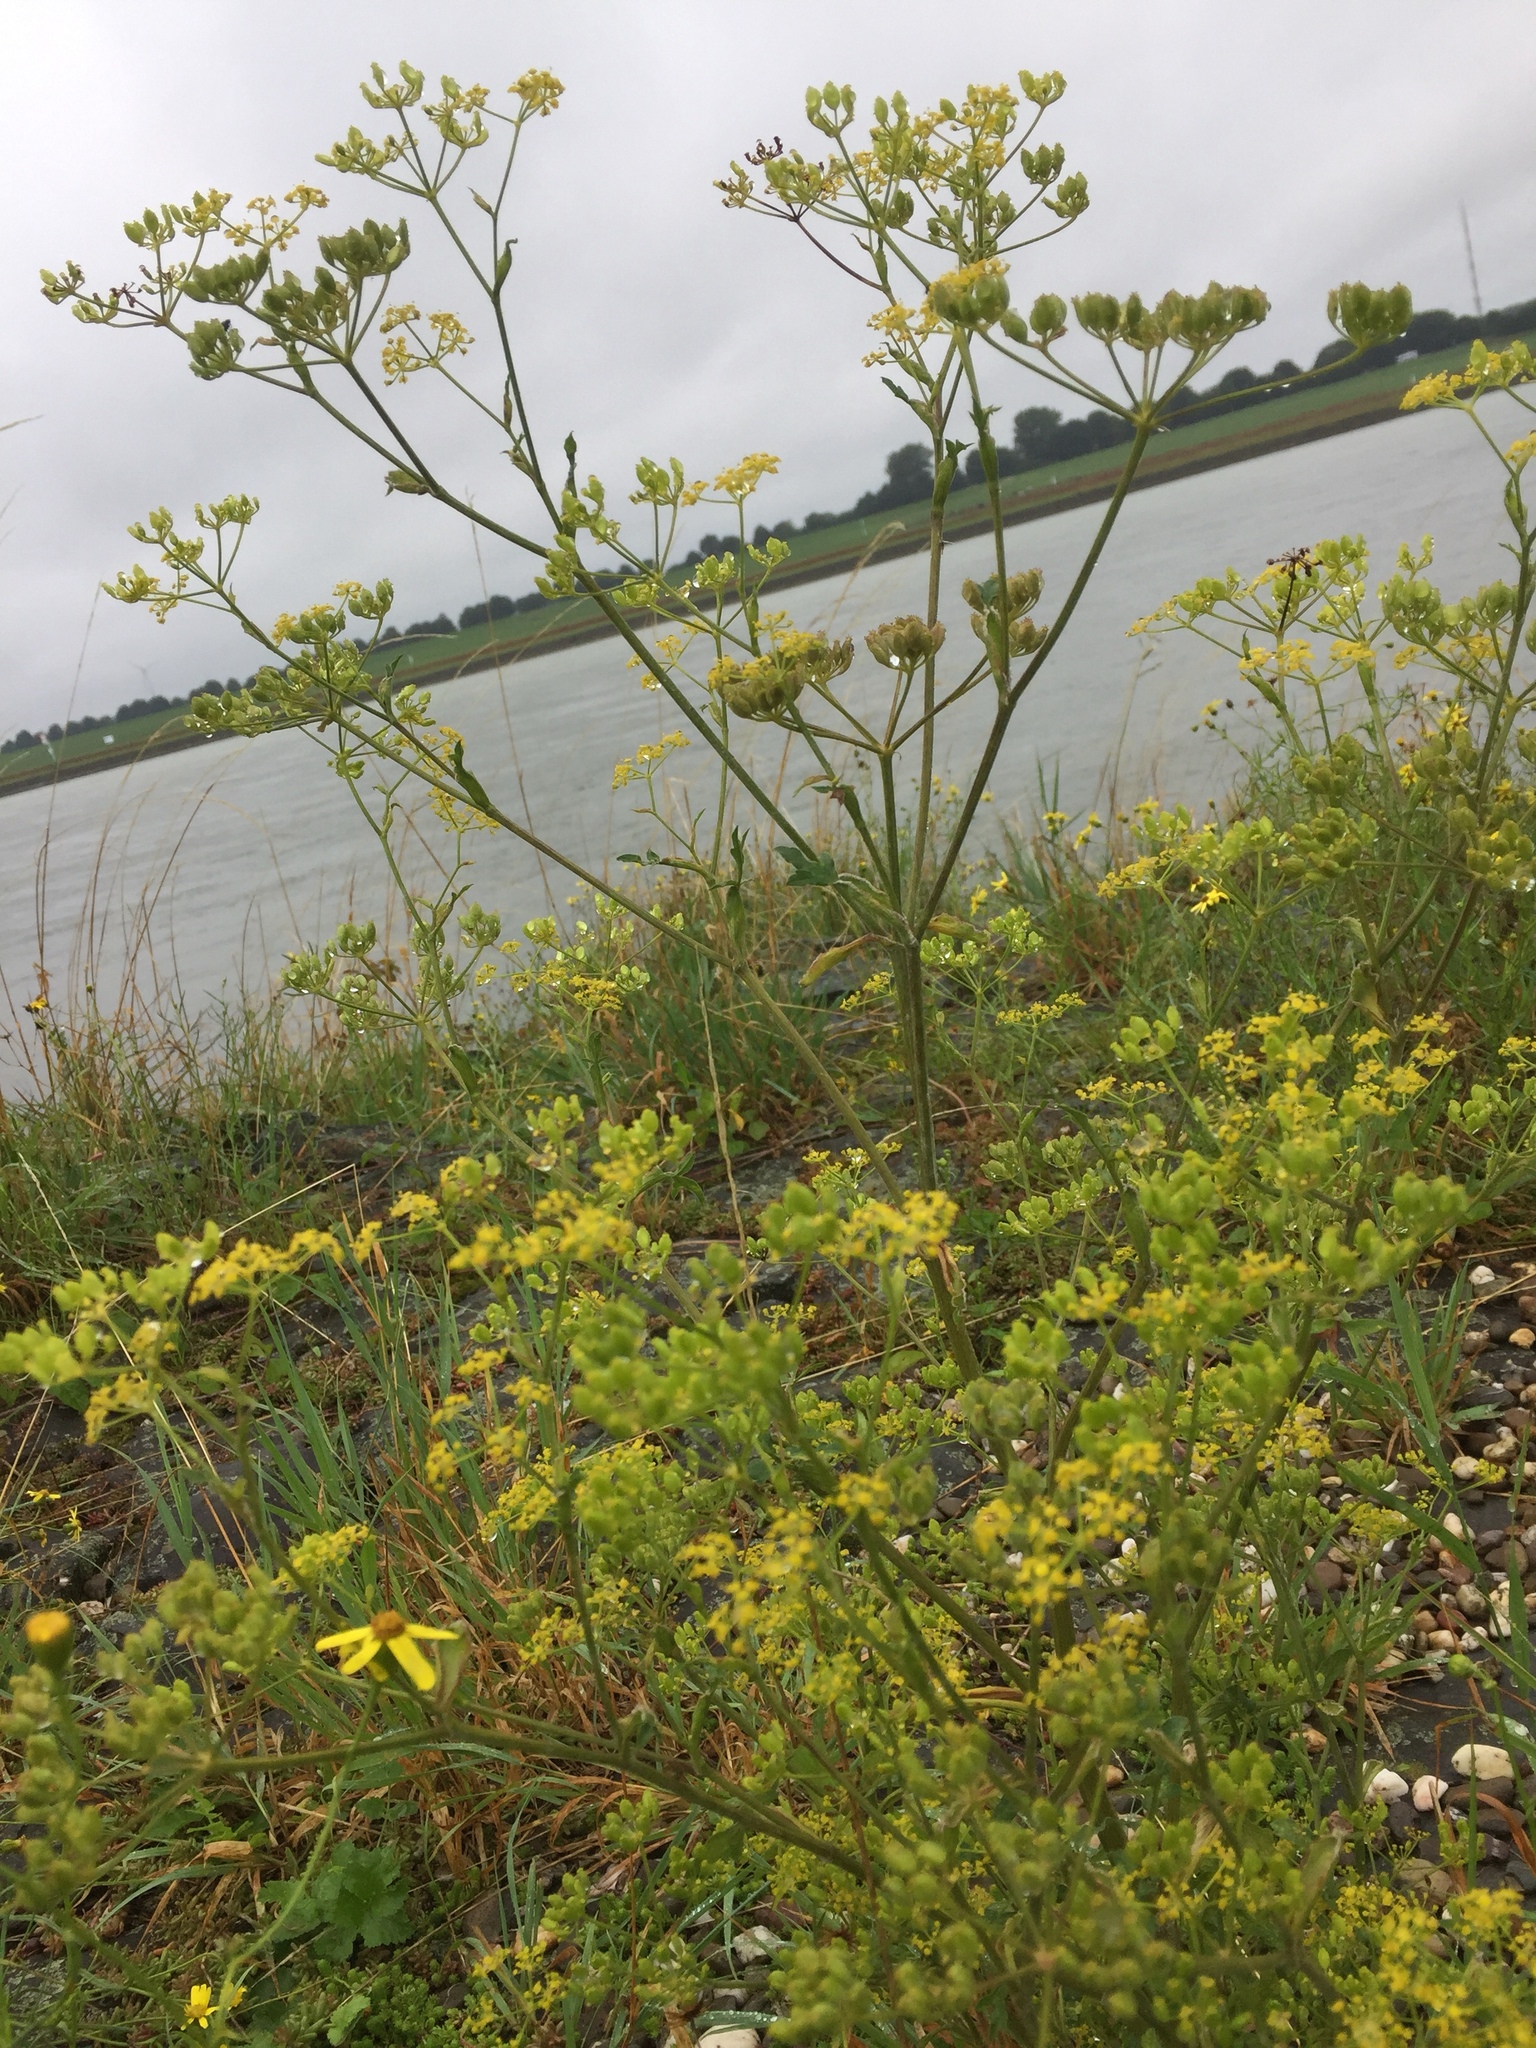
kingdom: Plantae
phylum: Tracheophyta
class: Magnoliopsida
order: Apiales
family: Apiaceae
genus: Pastinaca
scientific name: Pastinaca sativa
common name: Wild parsnip
